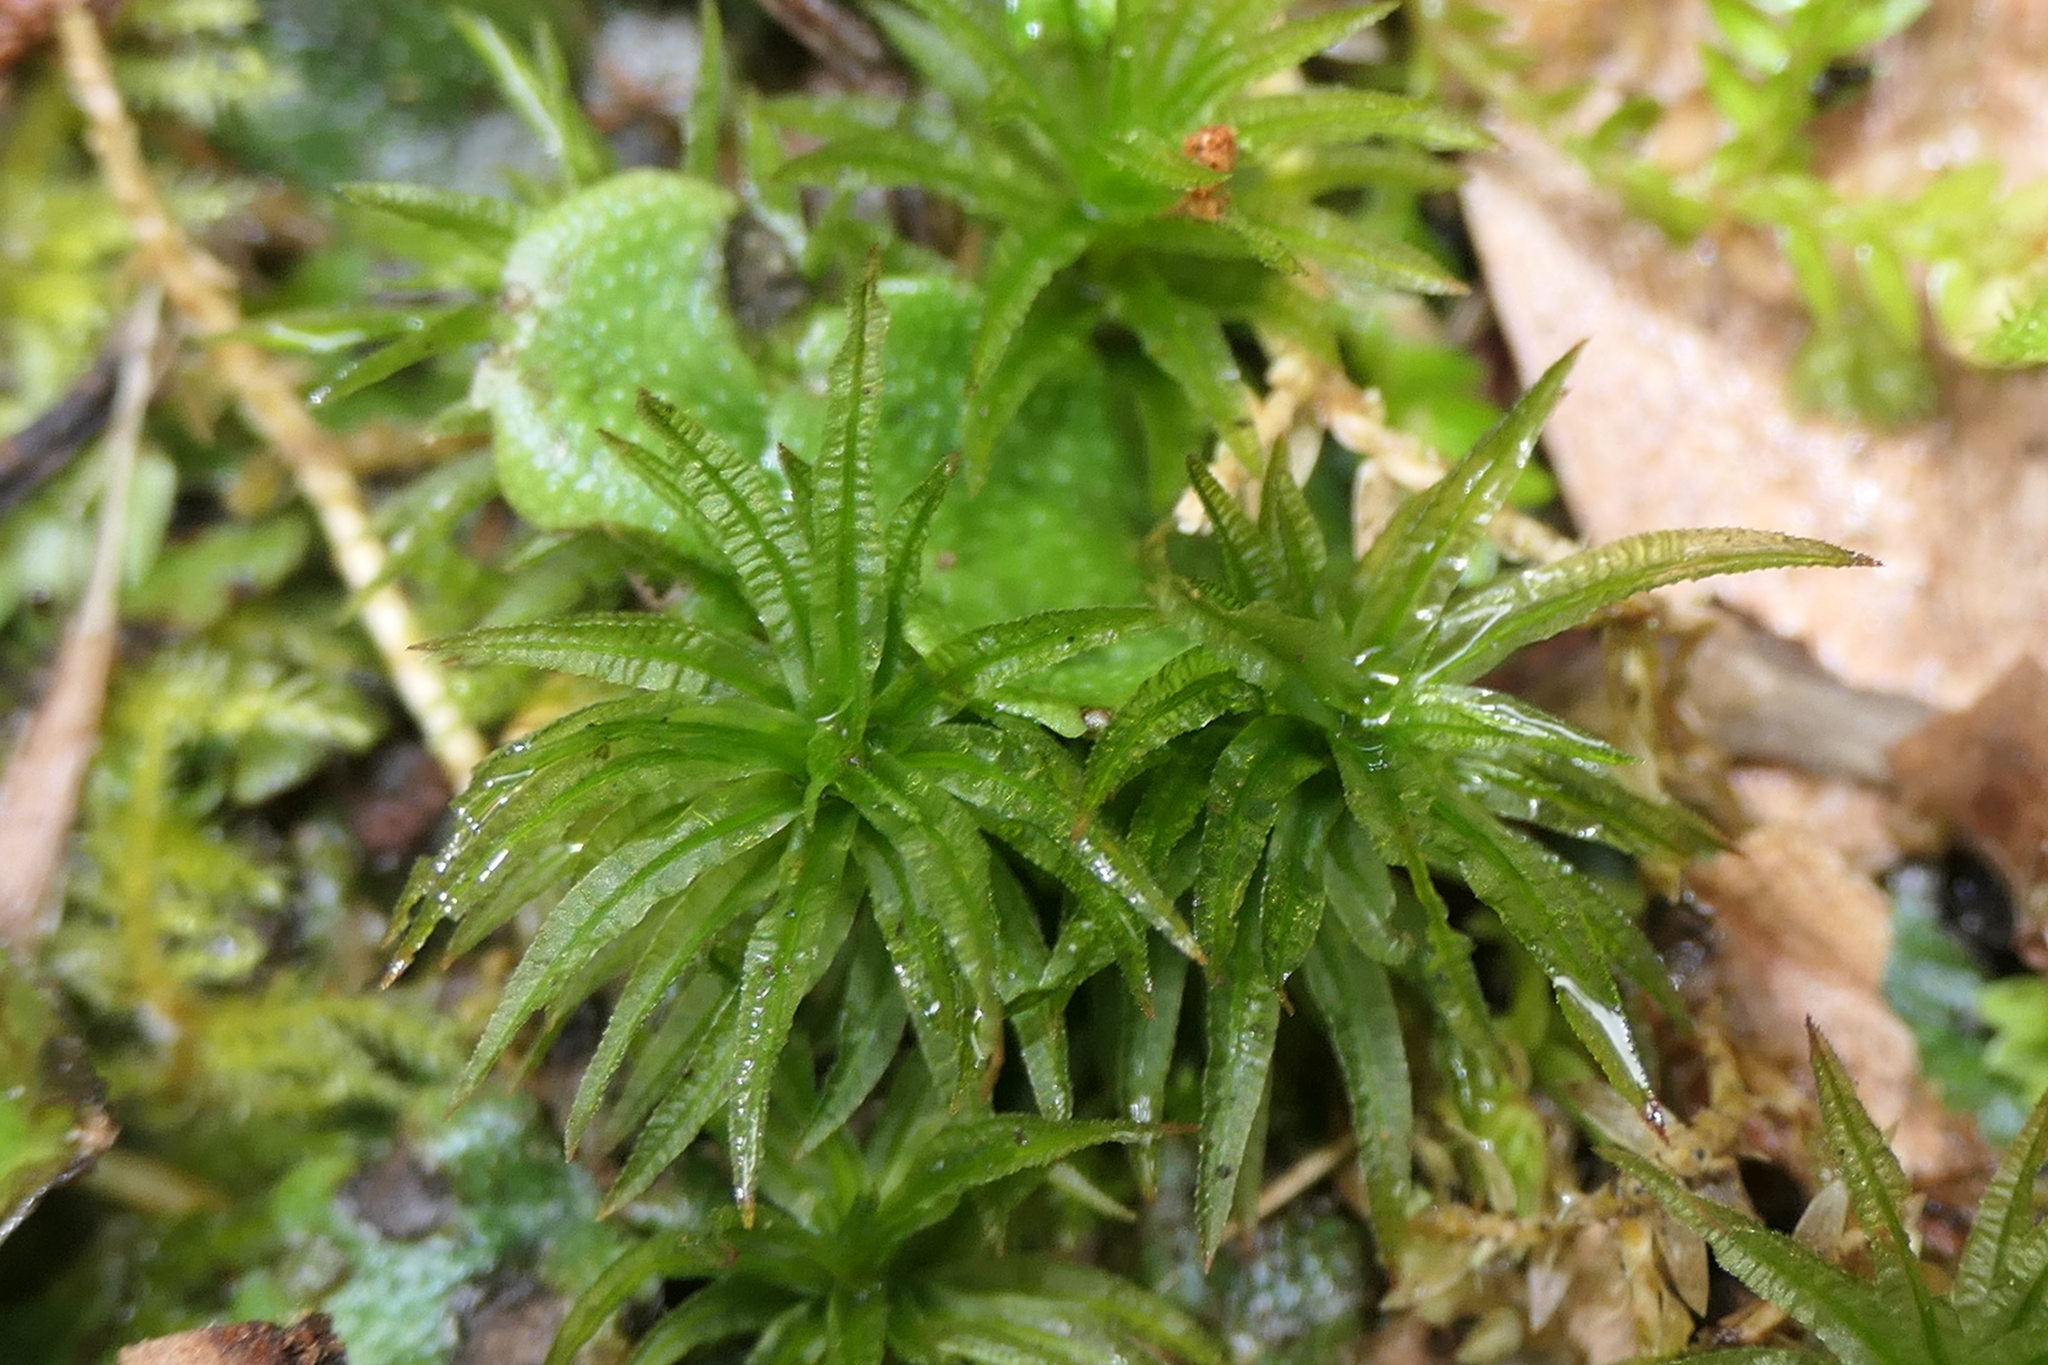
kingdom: Plantae
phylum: Bryophyta
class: Polytrichopsida
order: Polytrichales
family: Polytrichaceae
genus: Atrichum
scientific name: Atrichum undulatum
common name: Common smoothcap
